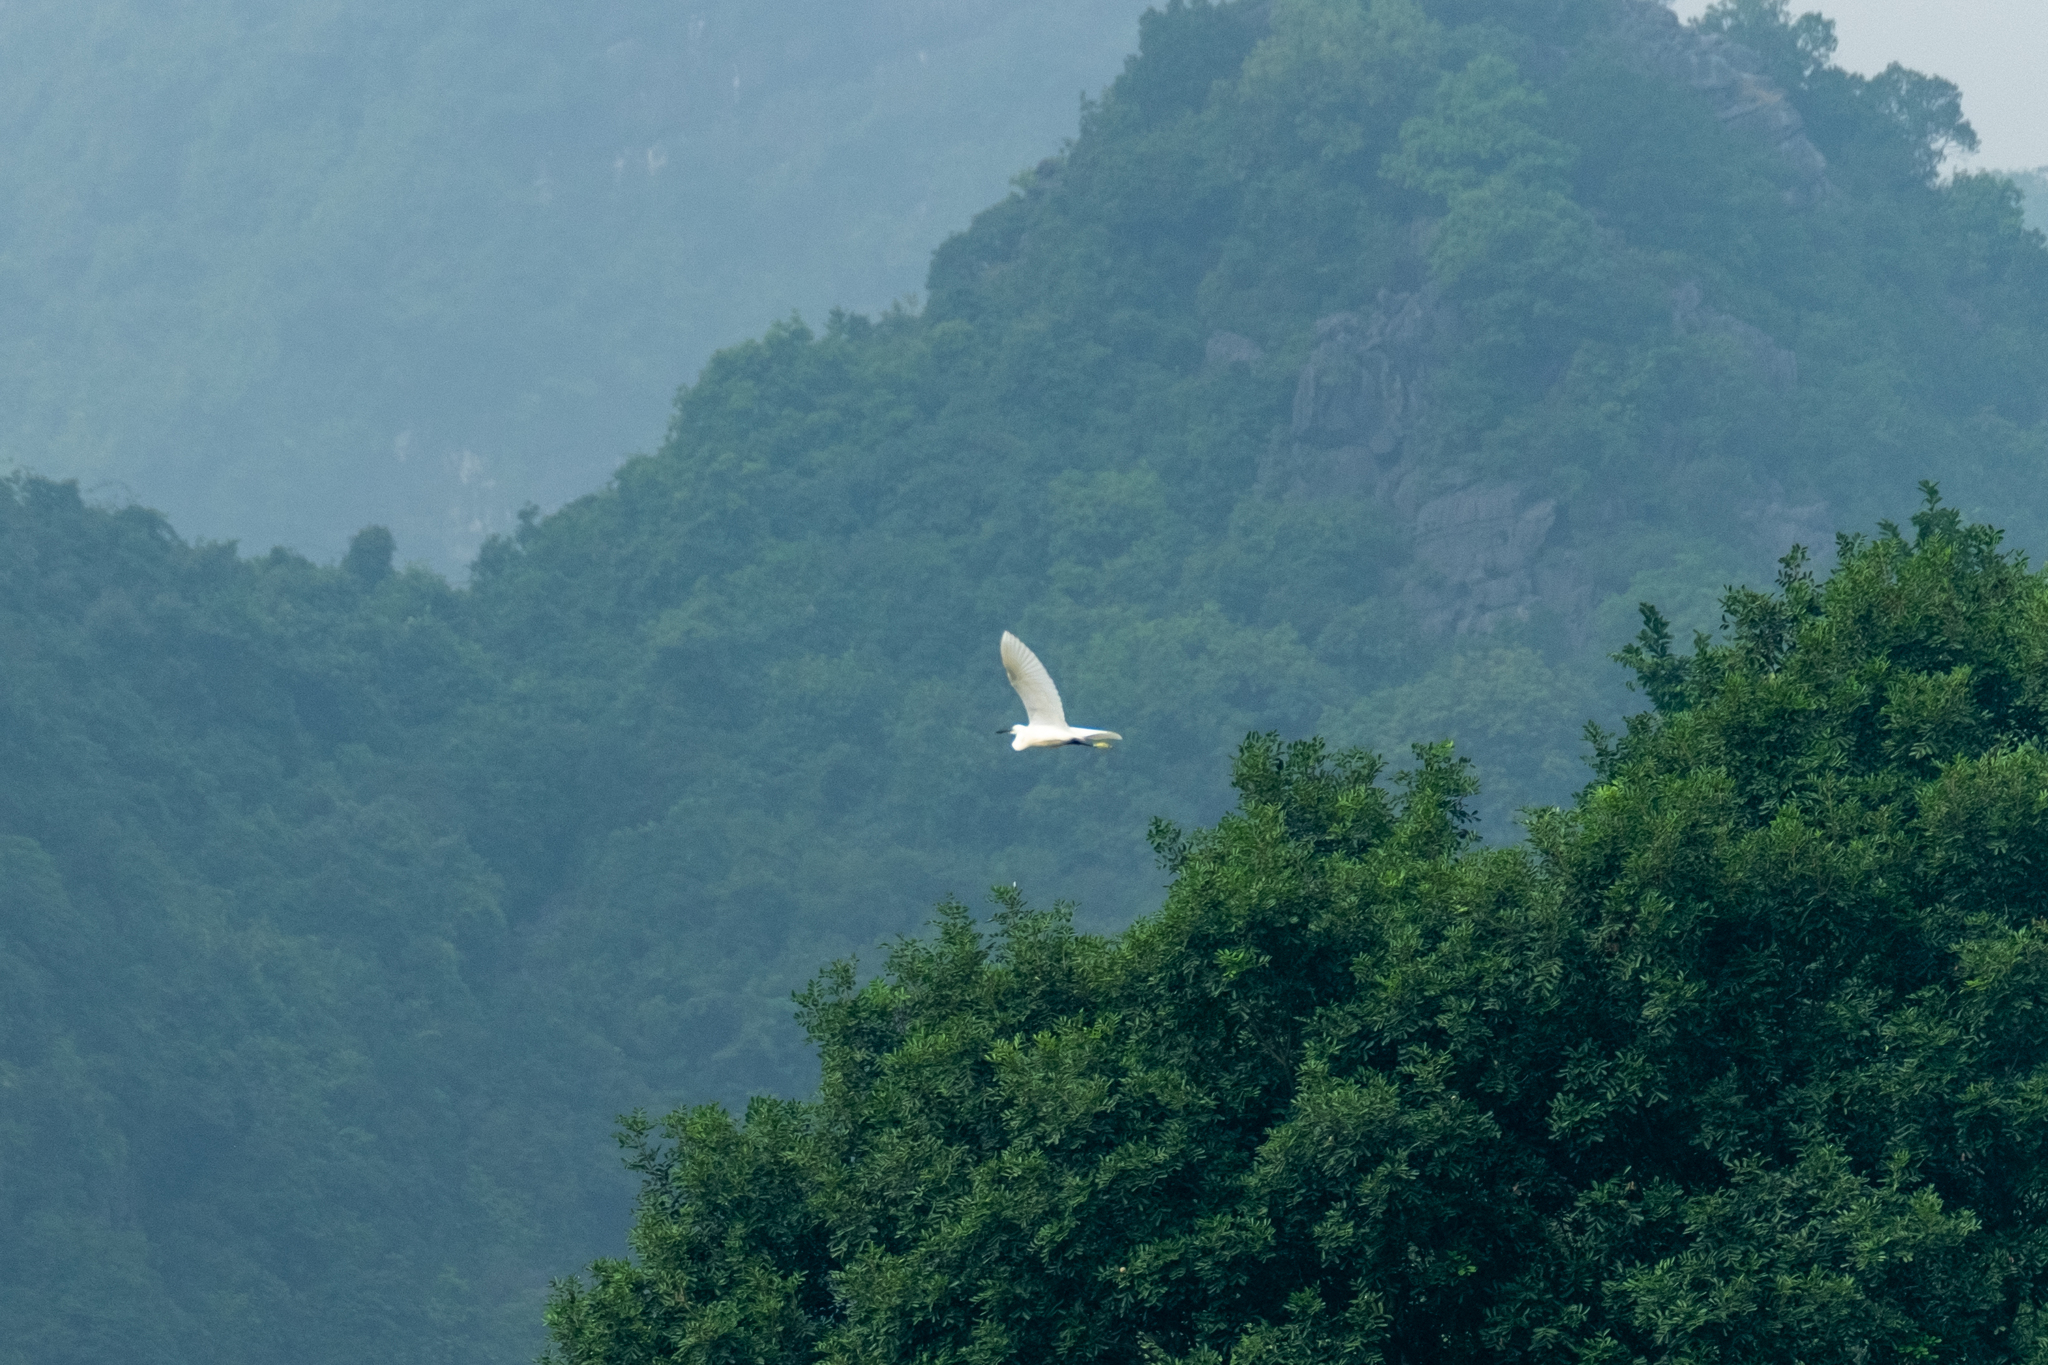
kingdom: Animalia
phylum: Chordata
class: Aves
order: Pelecaniformes
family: Ardeidae
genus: Egretta
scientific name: Egretta garzetta
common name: Little egret
